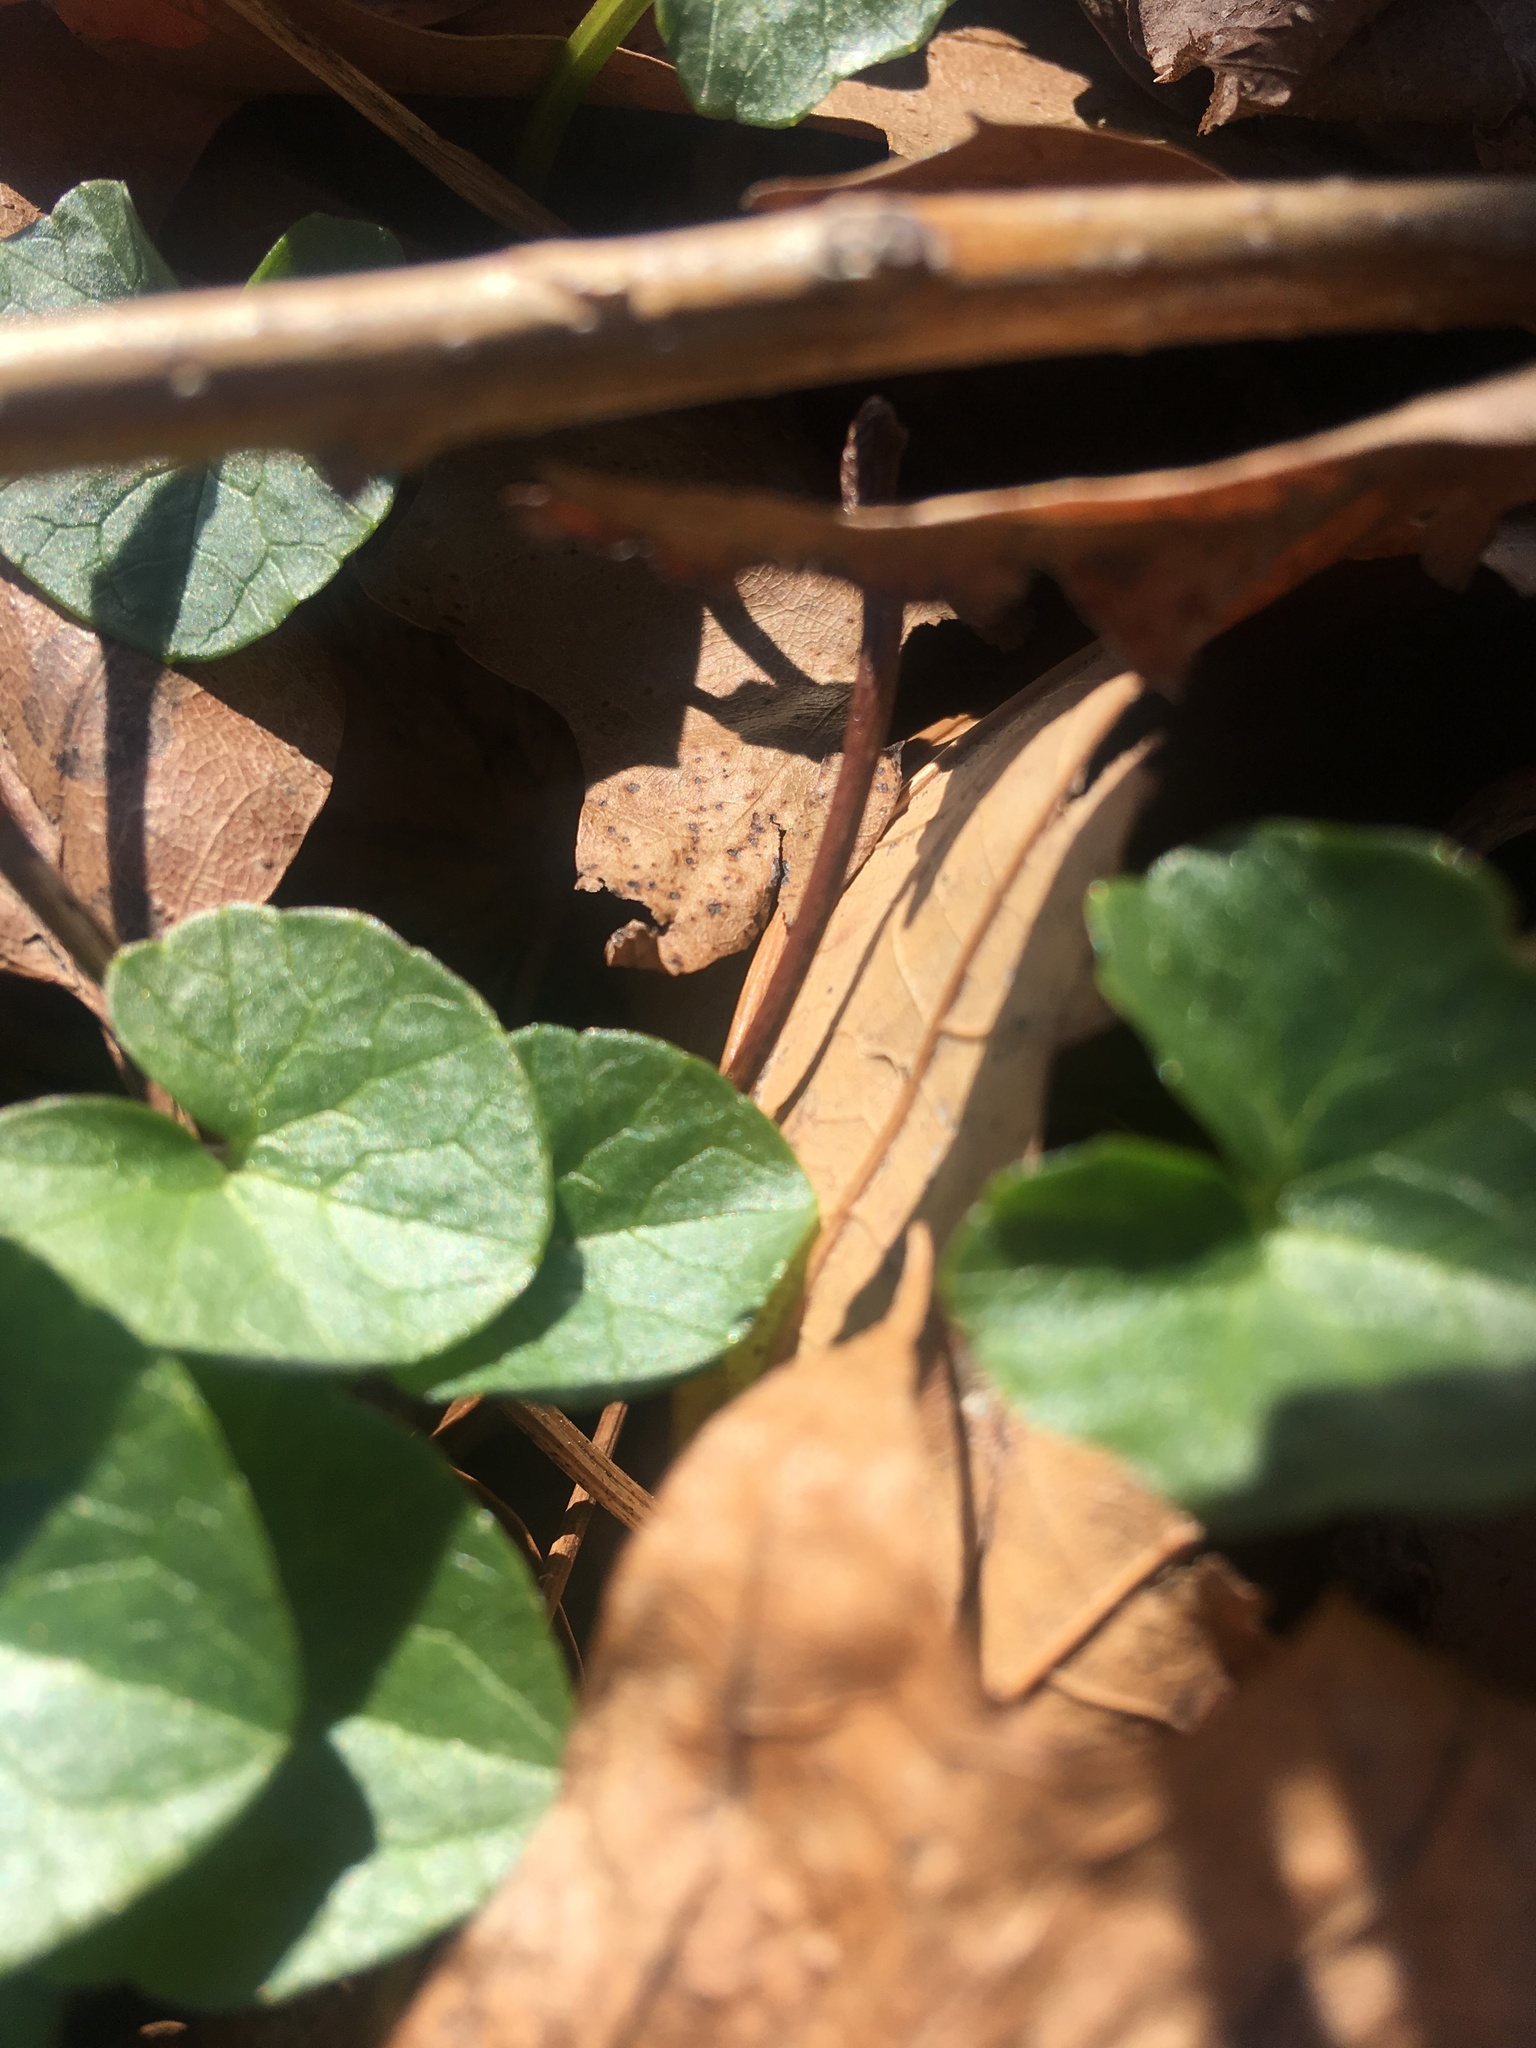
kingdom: Plantae
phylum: Tracheophyta
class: Magnoliopsida
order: Ranunculales
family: Ranunculaceae
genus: Ficaria
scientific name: Ficaria verna
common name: Lesser celandine
